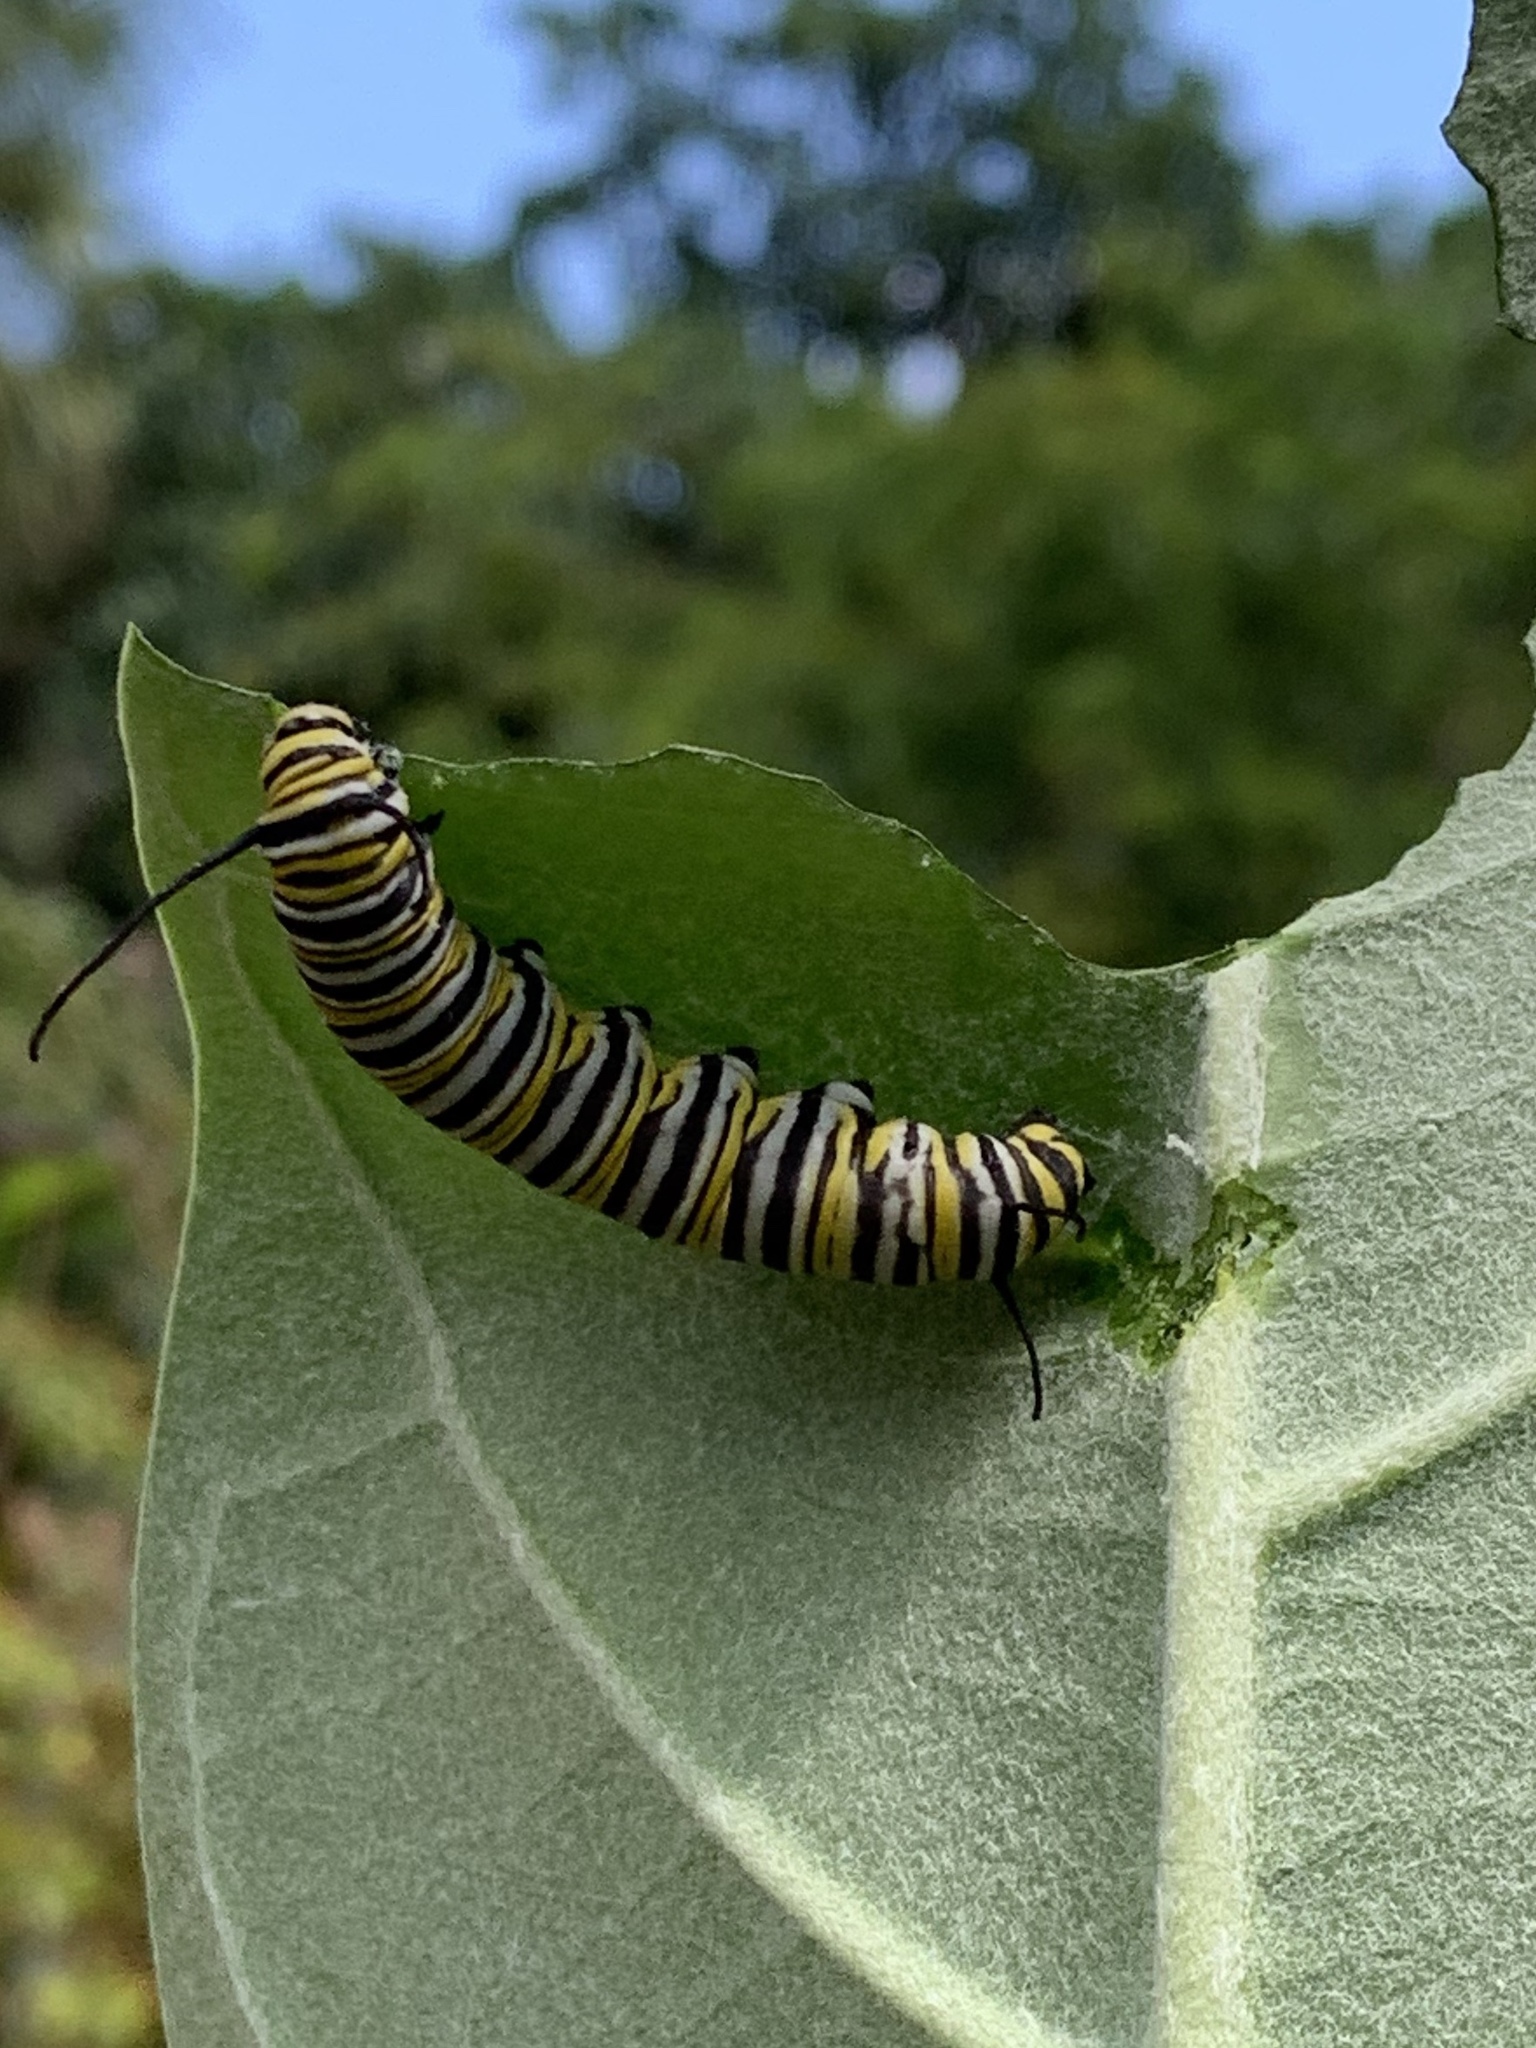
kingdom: Animalia
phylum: Arthropoda
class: Insecta
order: Lepidoptera
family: Nymphalidae
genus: Danaus
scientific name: Danaus plexippus
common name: Monarch
